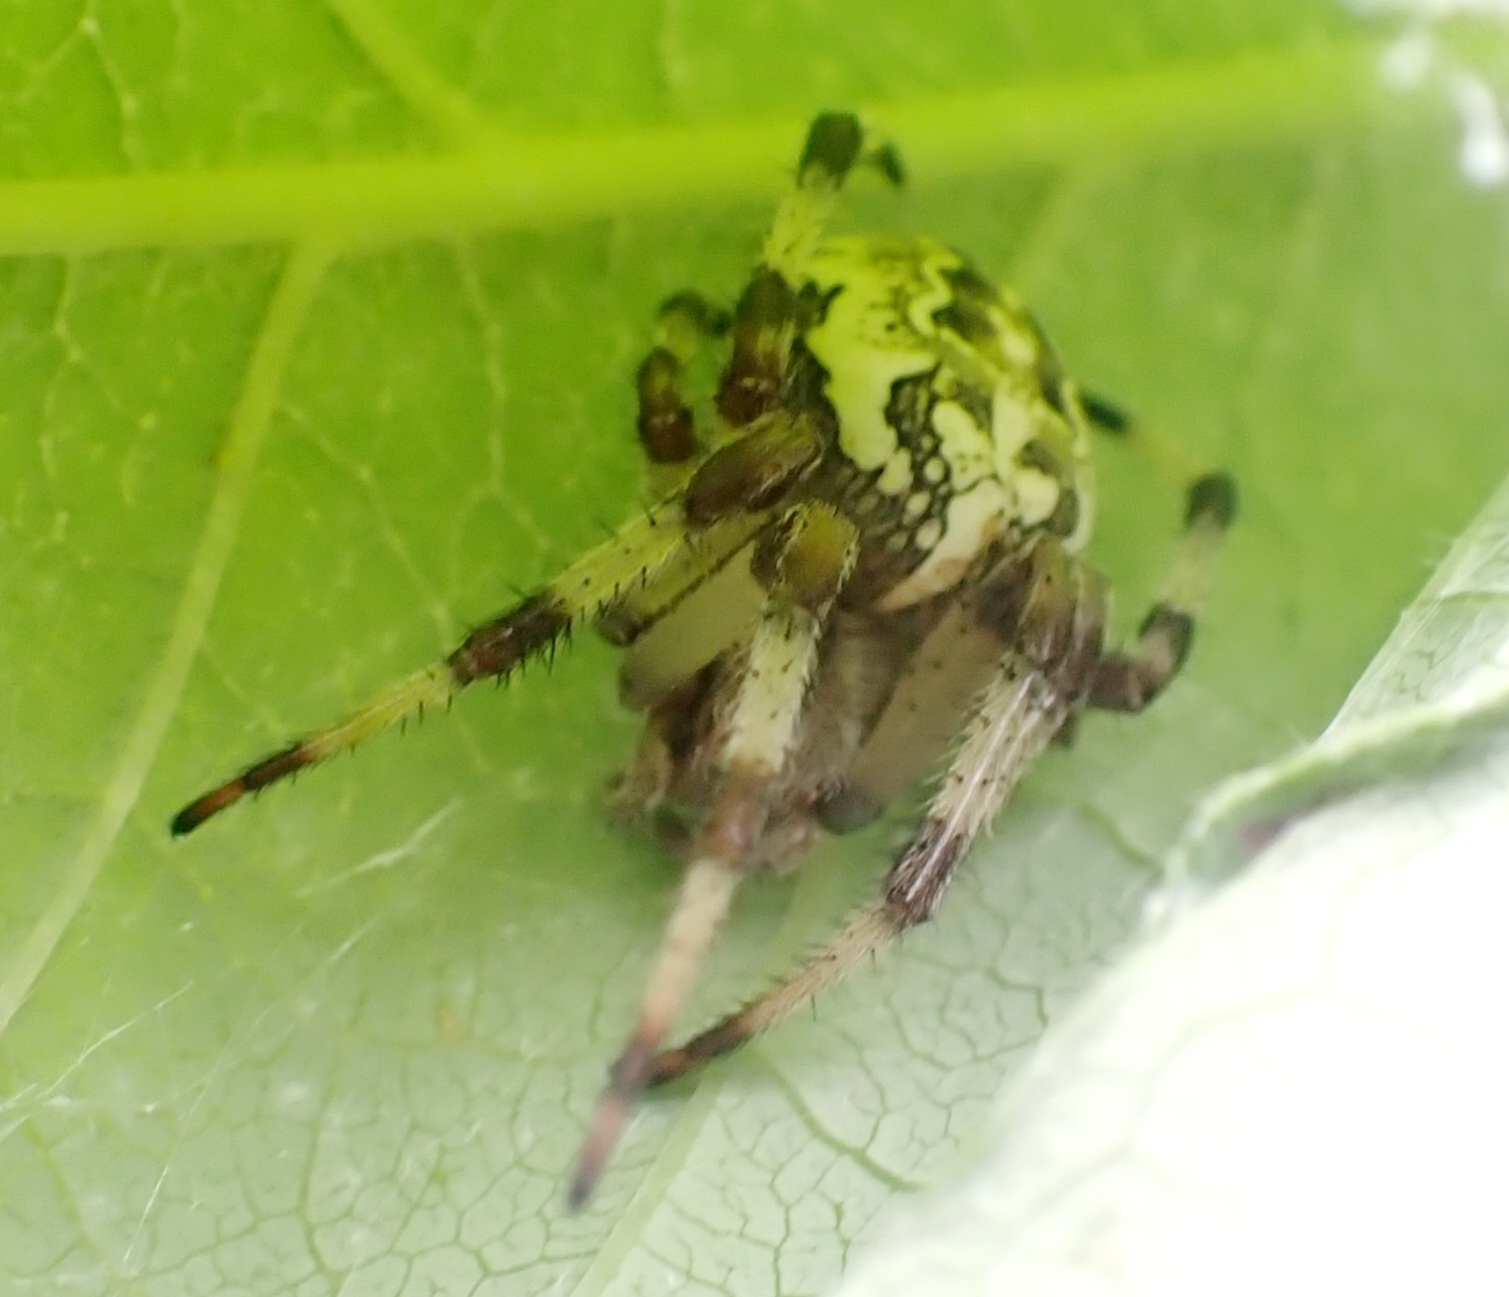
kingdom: Animalia
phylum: Arthropoda
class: Arachnida
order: Araneae
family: Araneidae
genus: Araneus
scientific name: Araneus marmoreus
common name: Marbled orbweaver
